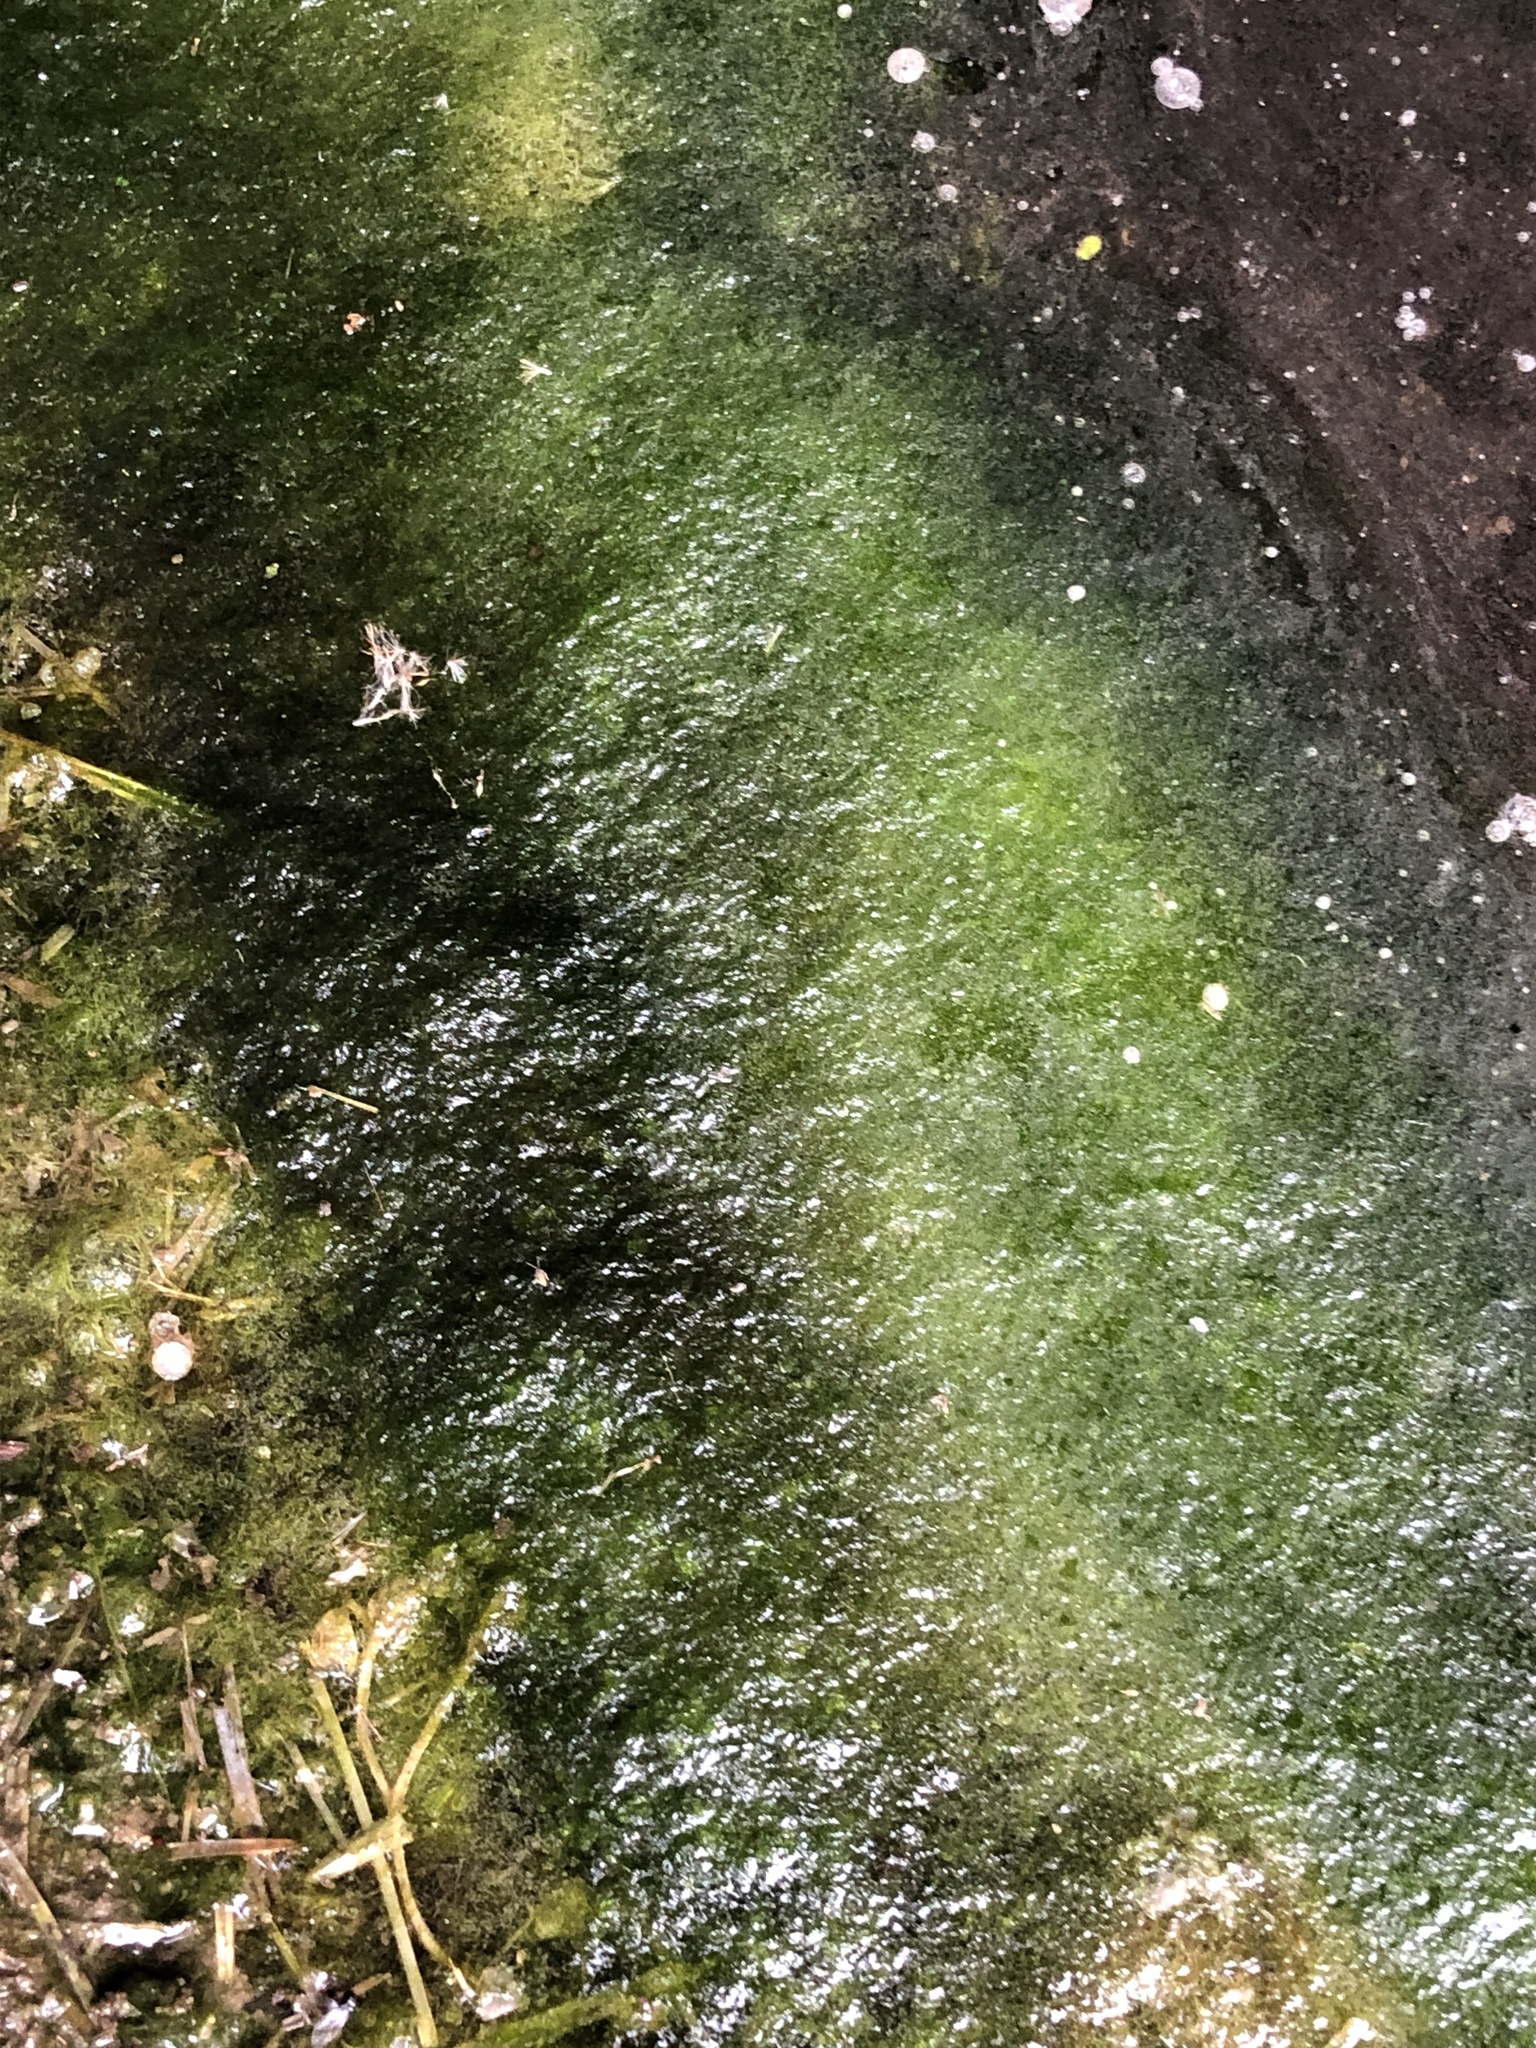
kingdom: Chromista
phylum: Ochrophyta
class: Xanthophyceae
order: Vaucheriales
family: Vaucheriaceae
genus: Vaucheria
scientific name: Vaucheria
